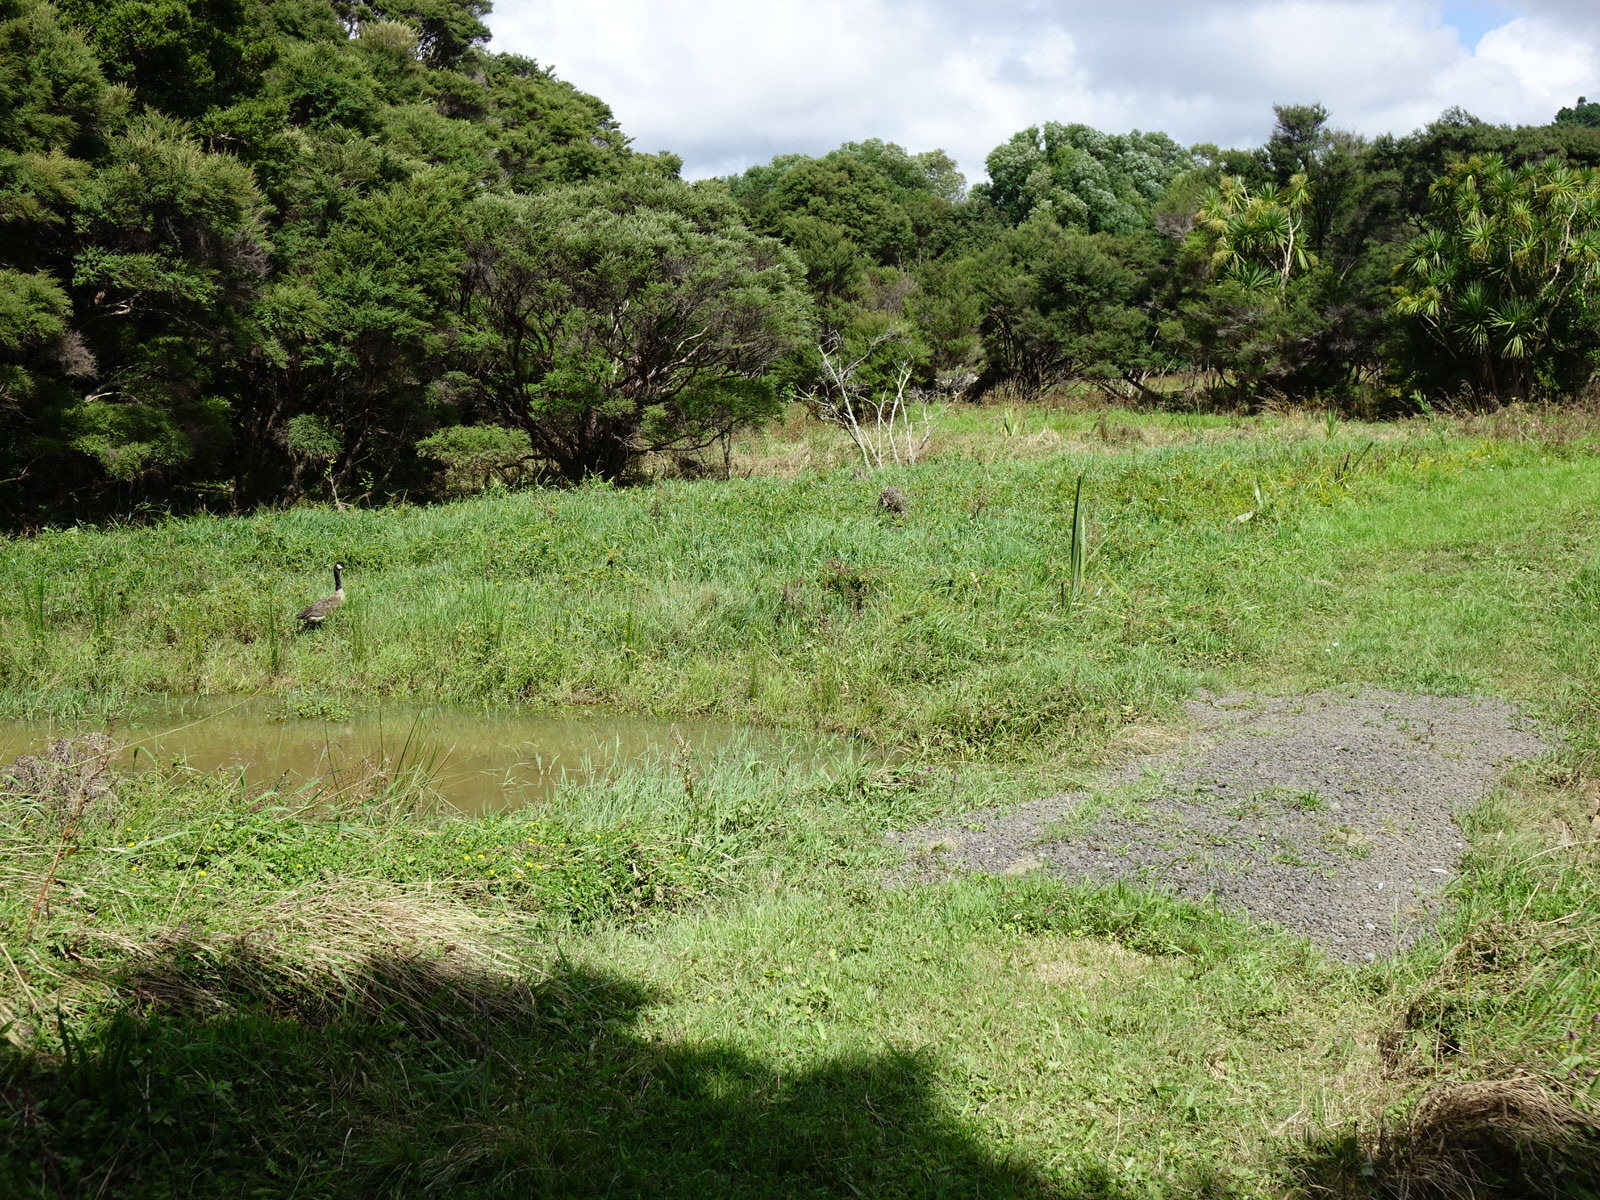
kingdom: Animalia
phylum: Chordata
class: Aves
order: Anseriformes
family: Anatidae
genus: Branta
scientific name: Branta canadensis
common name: Canada goose
